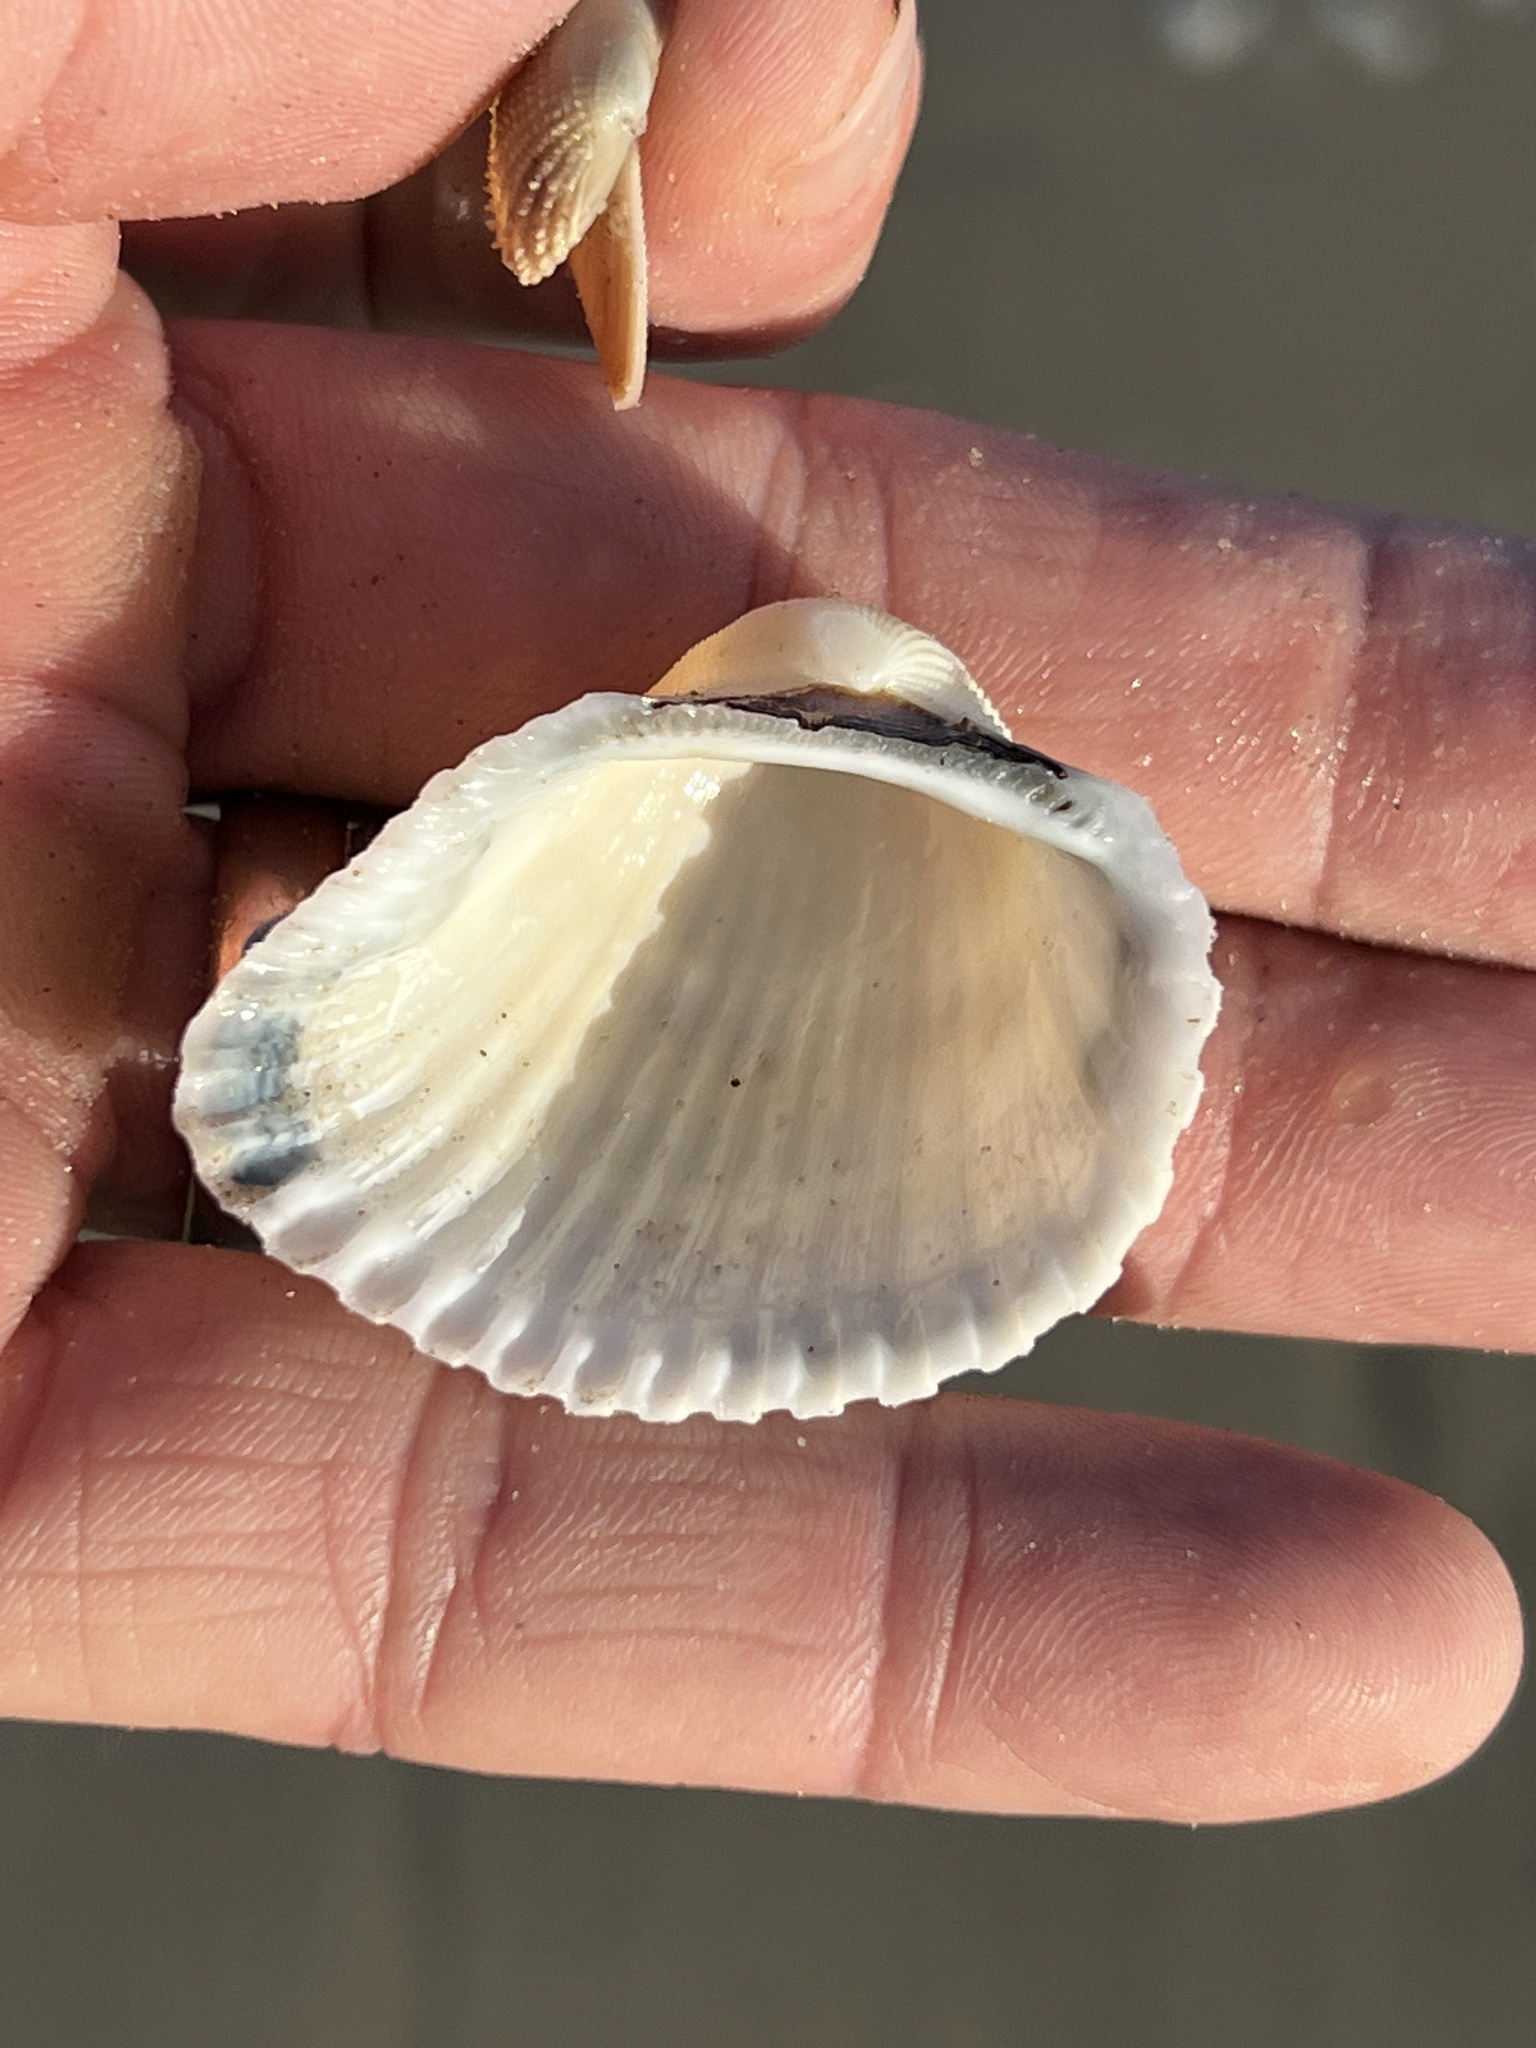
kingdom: Animalia
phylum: Mollusca
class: Bivalvia
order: Arcida
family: Arcidae
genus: Anadara
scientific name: Anadara brasiliana
